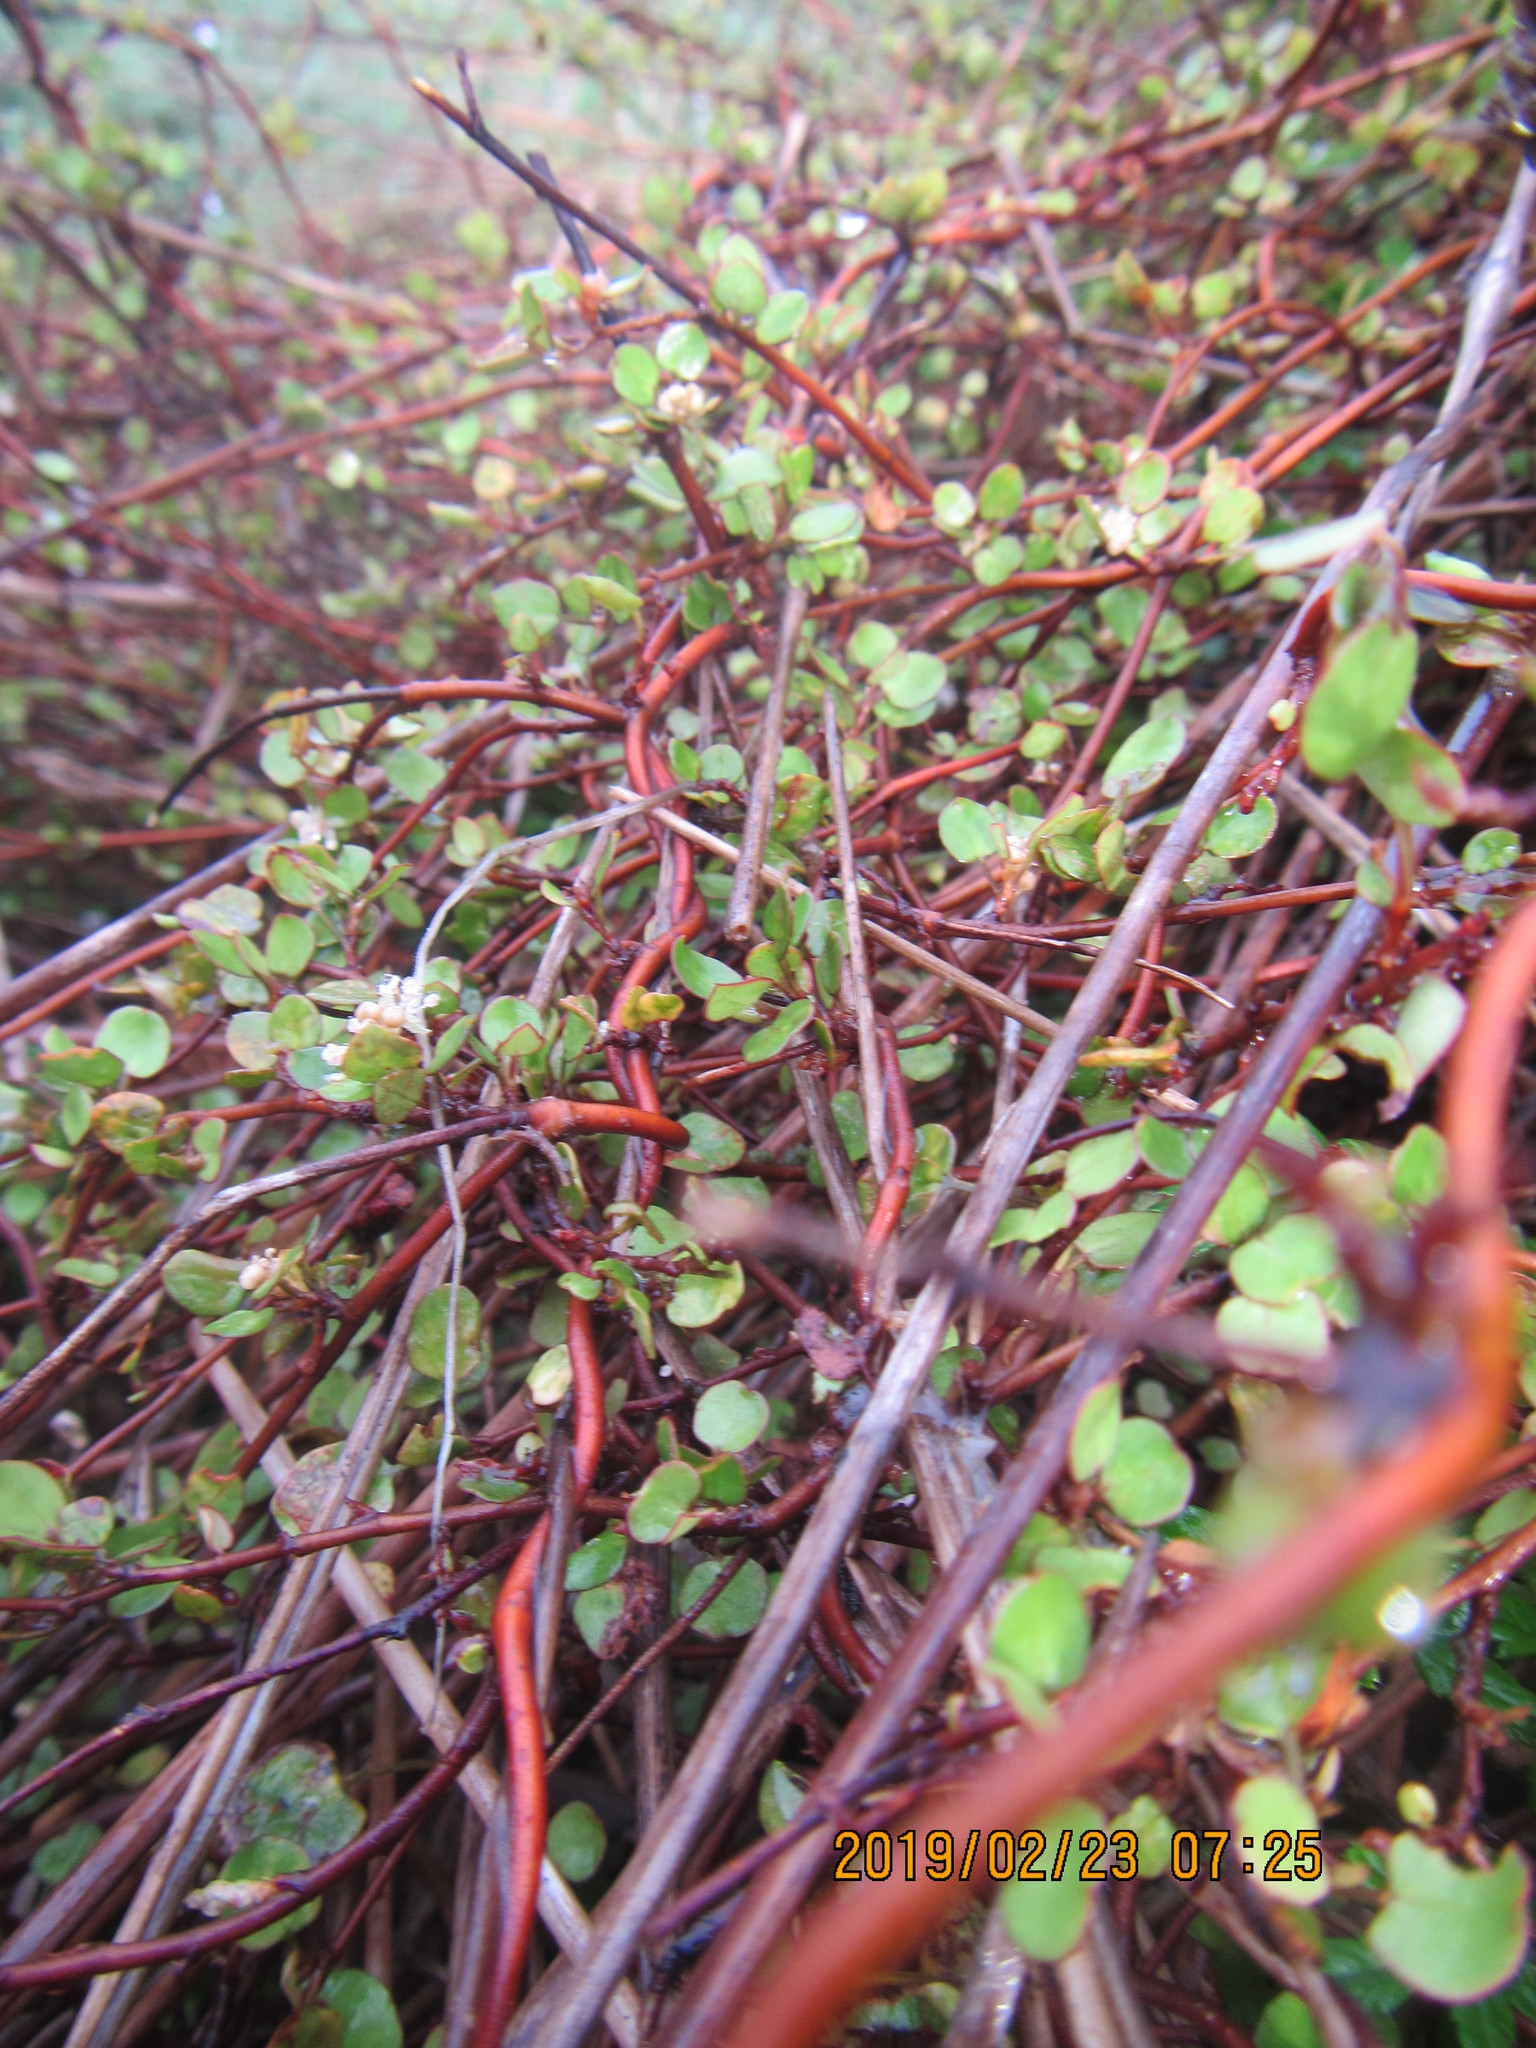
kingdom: Plantae
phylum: Tracheophyta
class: Magnoliopsida
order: Caryophyllales
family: Polygonaceae
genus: Muehlenbeckia
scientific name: Muehlenbeckia complexa
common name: Wireplant
